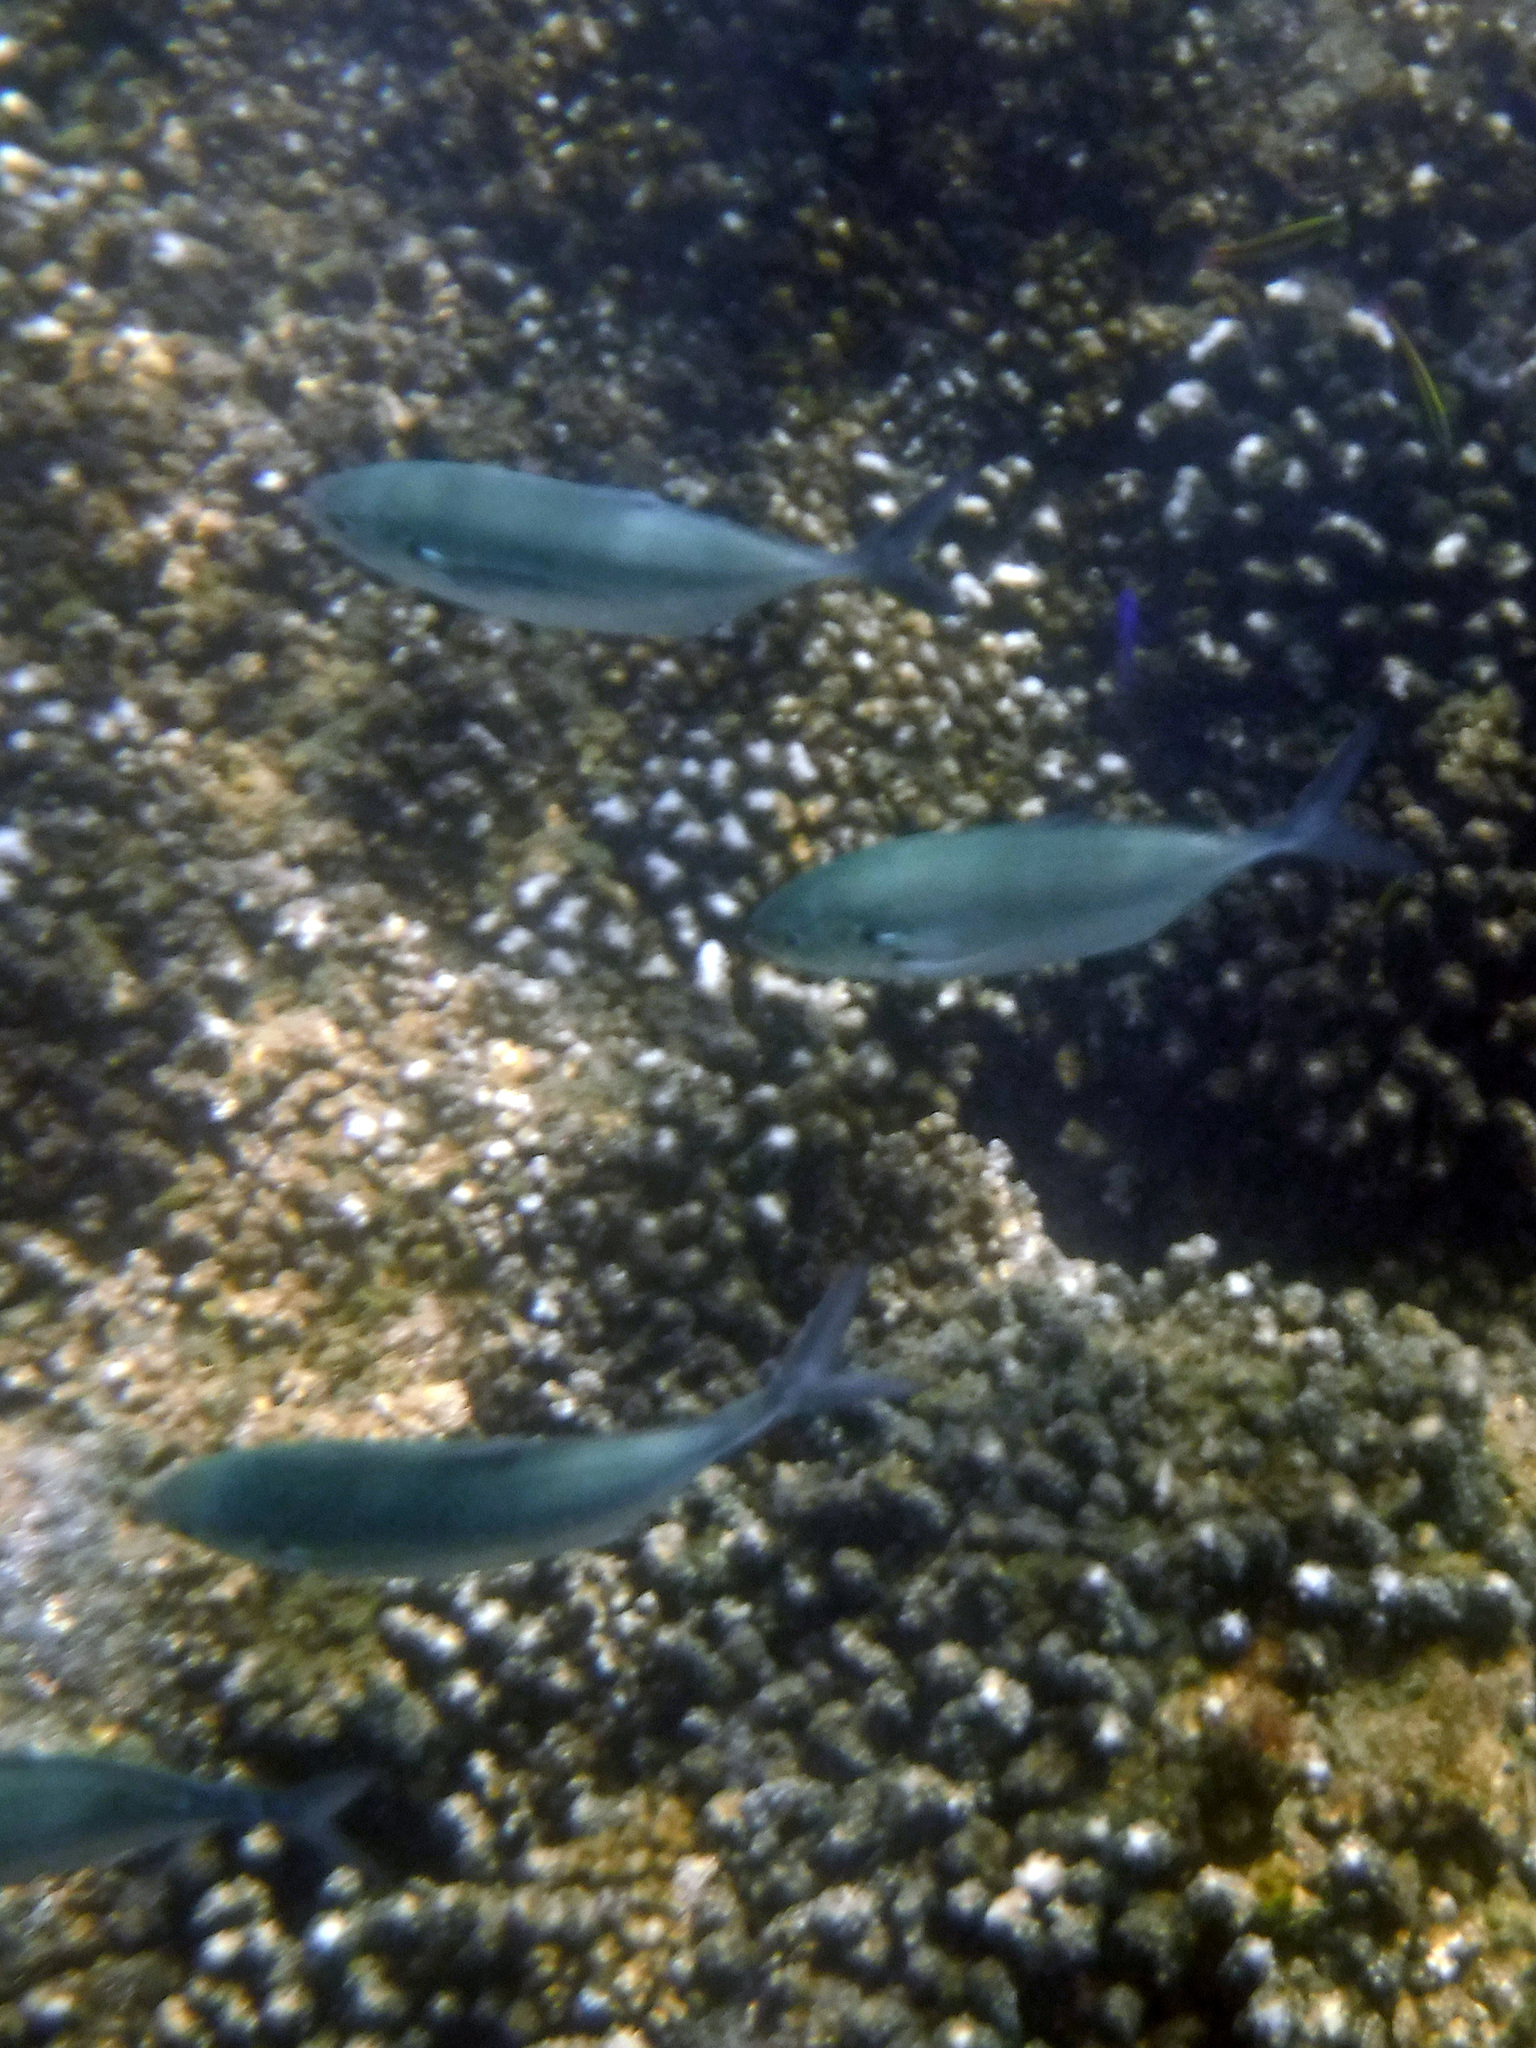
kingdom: Animalia
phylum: Chordata
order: Perciformes
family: Carangidae
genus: Caranx
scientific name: Caranx caballus
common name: Green jack
